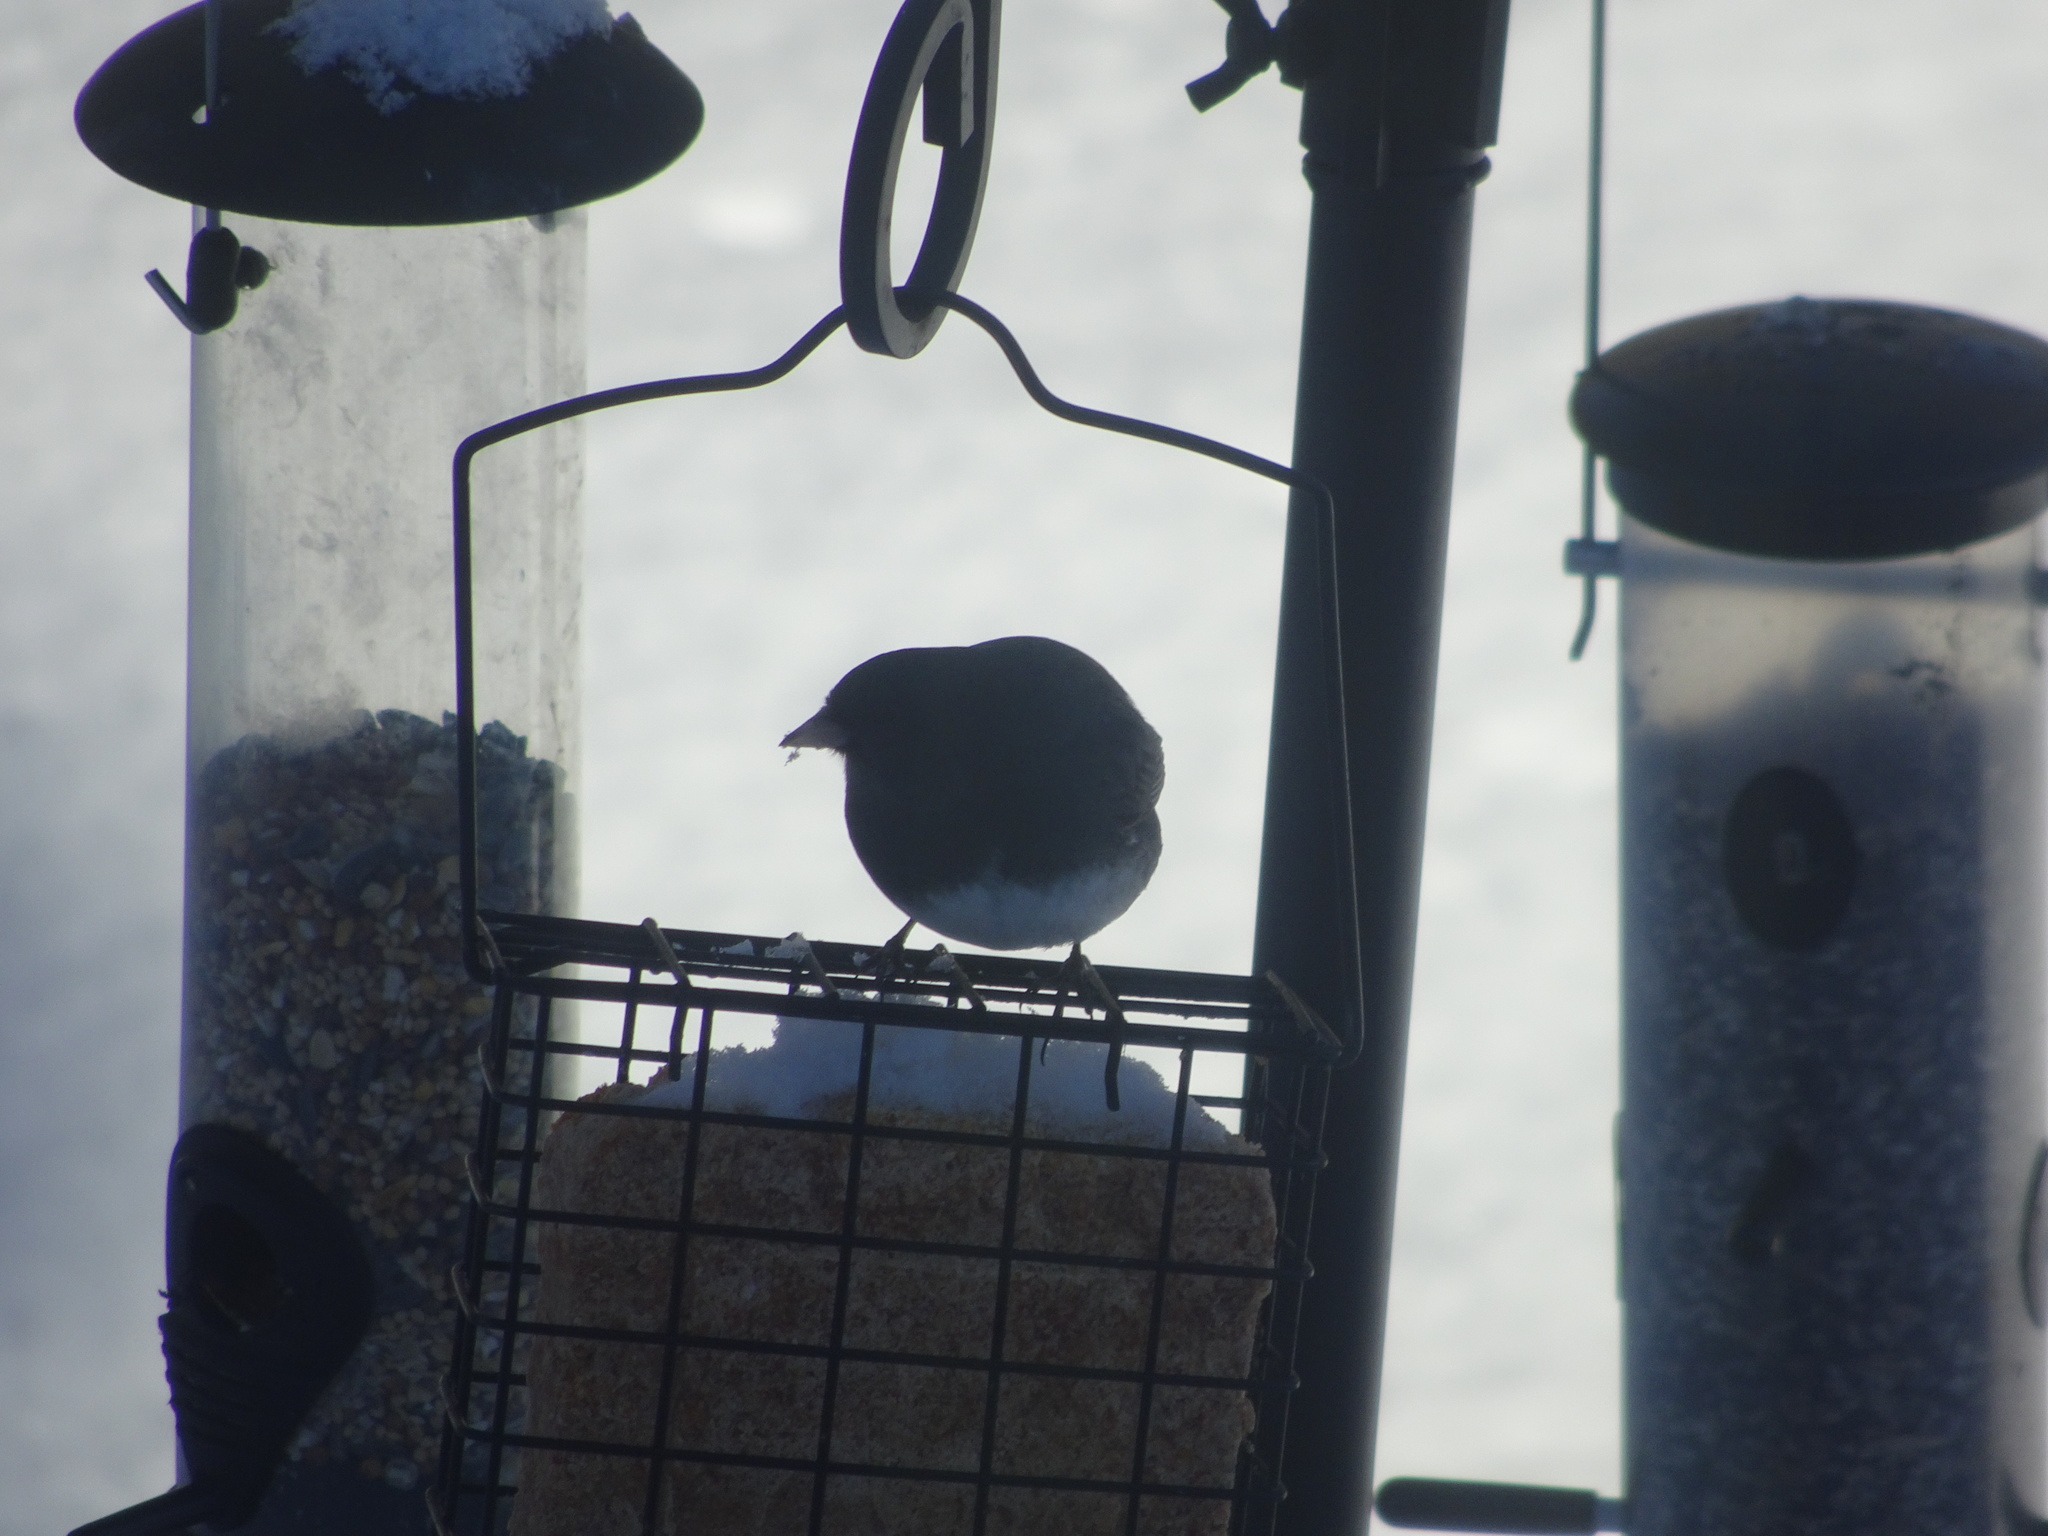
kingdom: Animalia
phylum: Chordata
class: Aves
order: Passeriformes
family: Passerellidae
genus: Junco
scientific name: Junco hyemalis
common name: Dark-eyed junco
